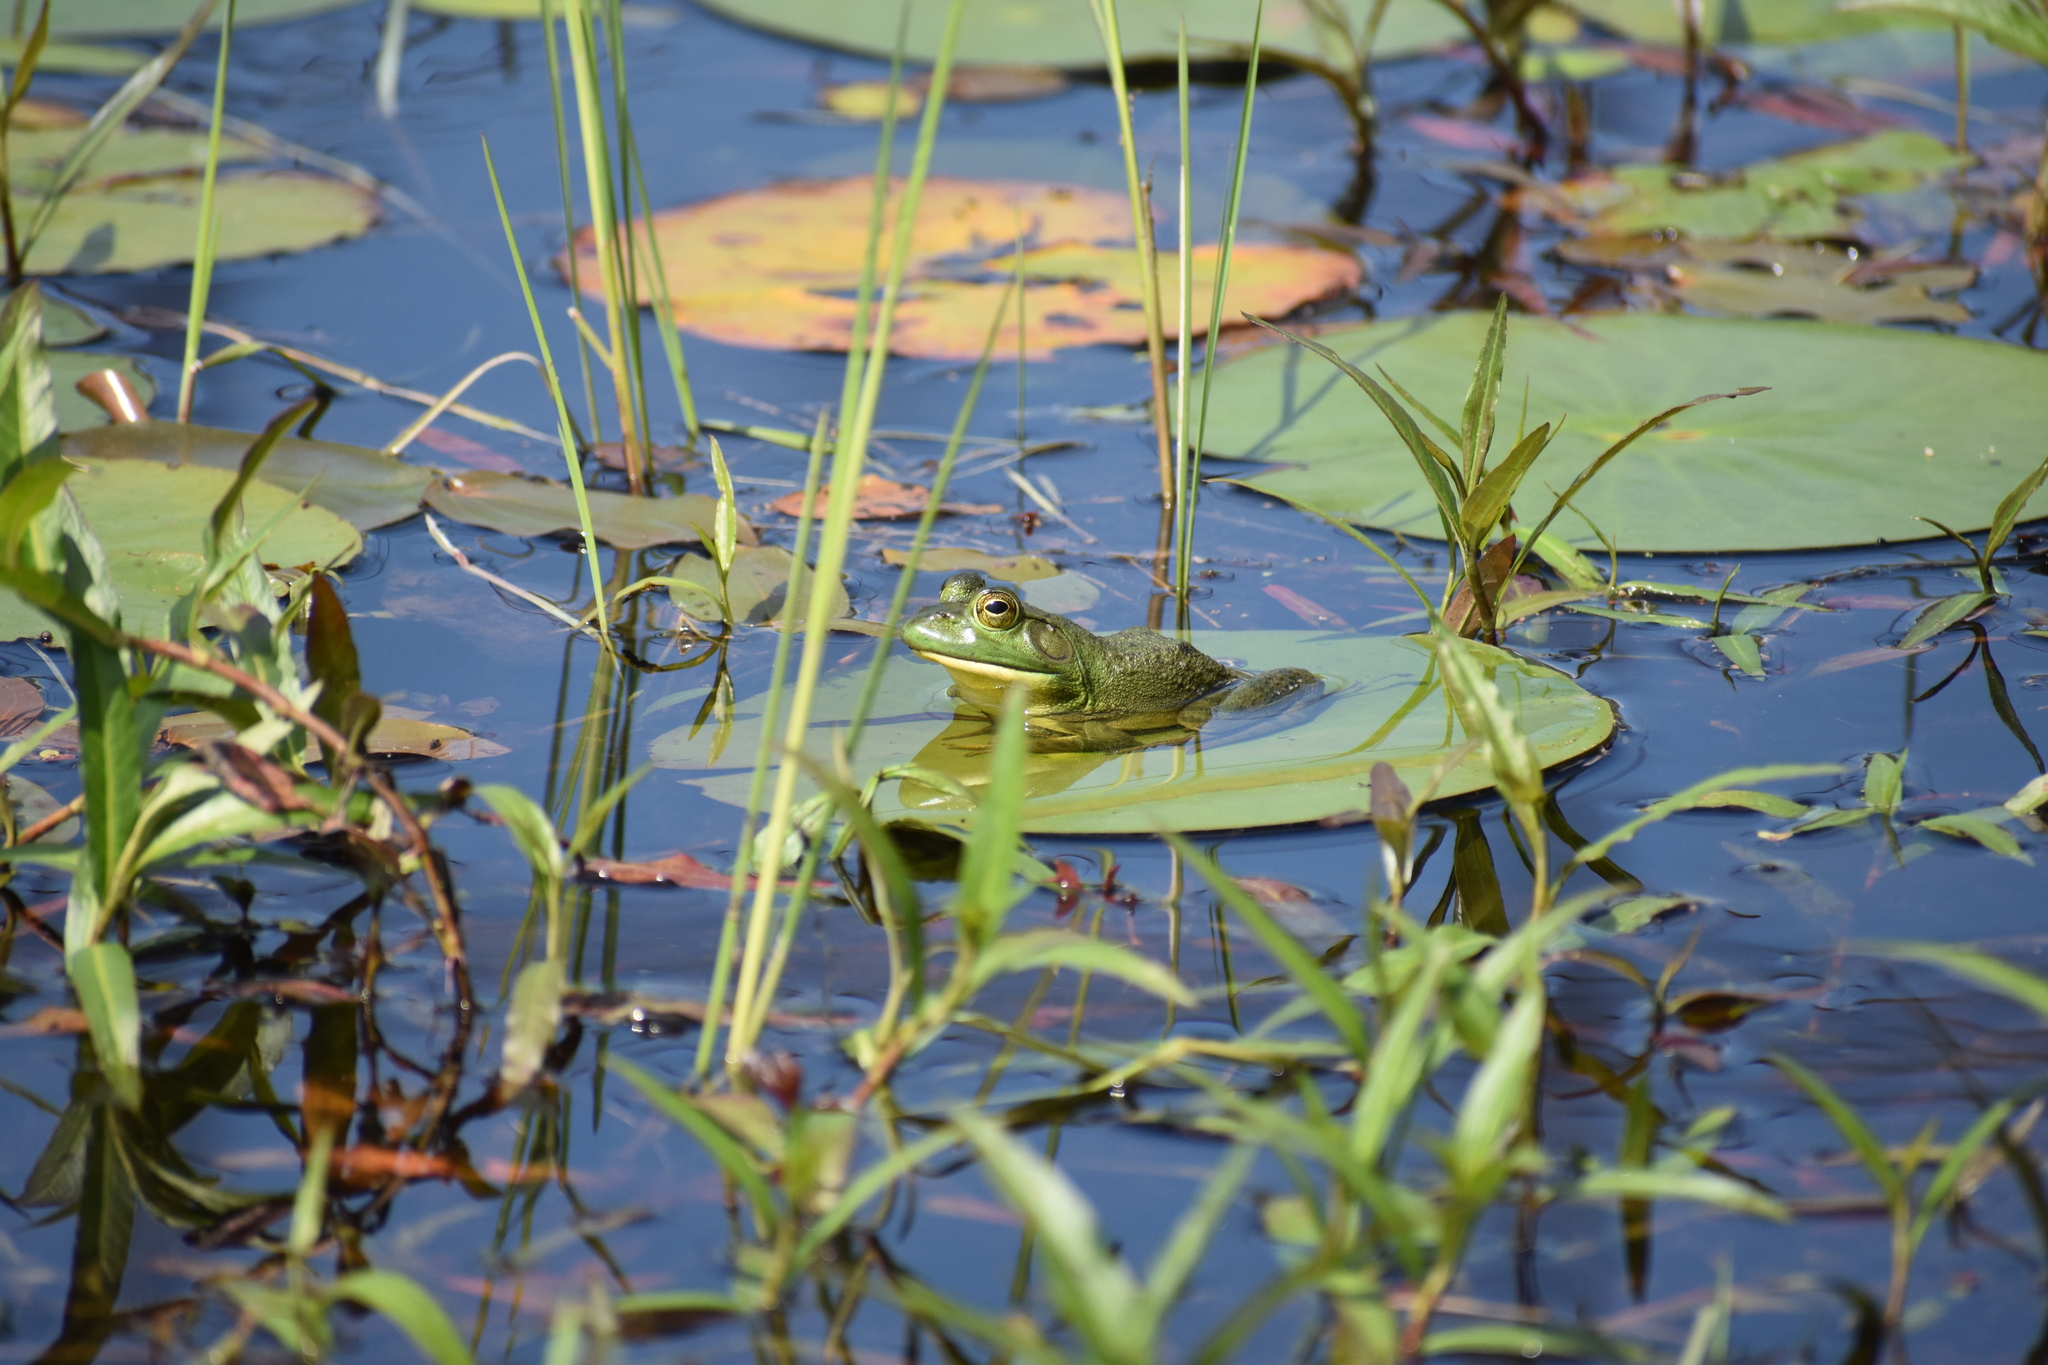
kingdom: Animalia
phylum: Chordata
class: Amphibia
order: Anura
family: Ranidae
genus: Lithobates
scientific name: Lithobates catesbeianus
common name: American bullfrog
